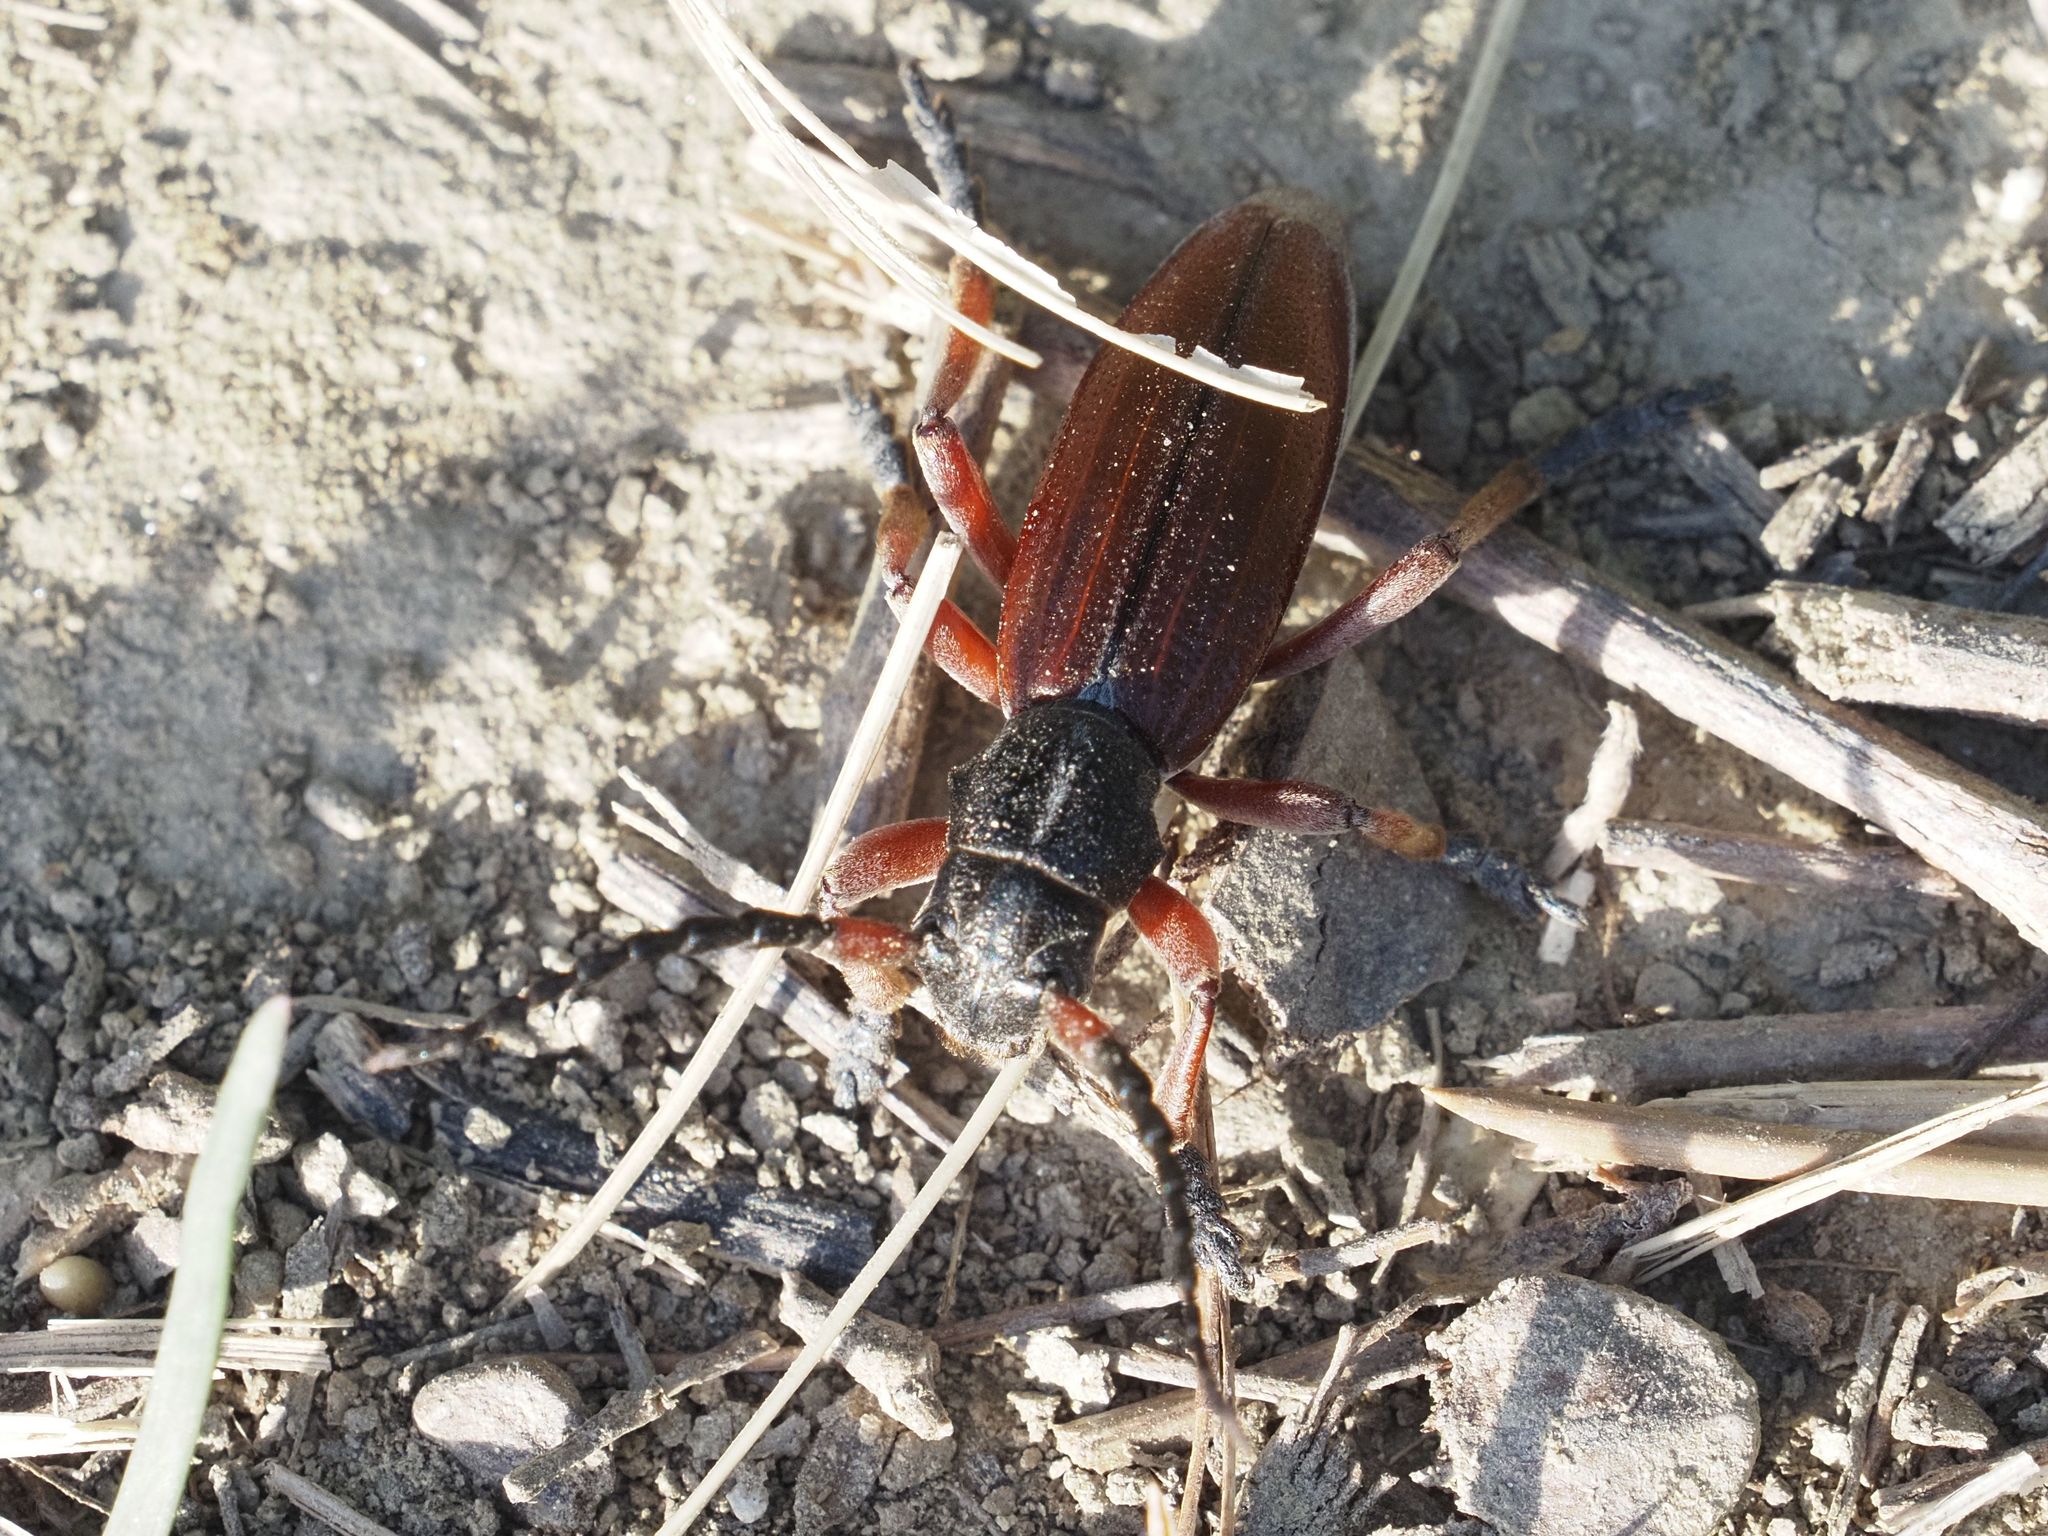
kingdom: Animalia
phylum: Arthropoda
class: Insecta
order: Coleoptera
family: Cerambycidae
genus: Dorcadion
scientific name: Dorcadion fulvum
